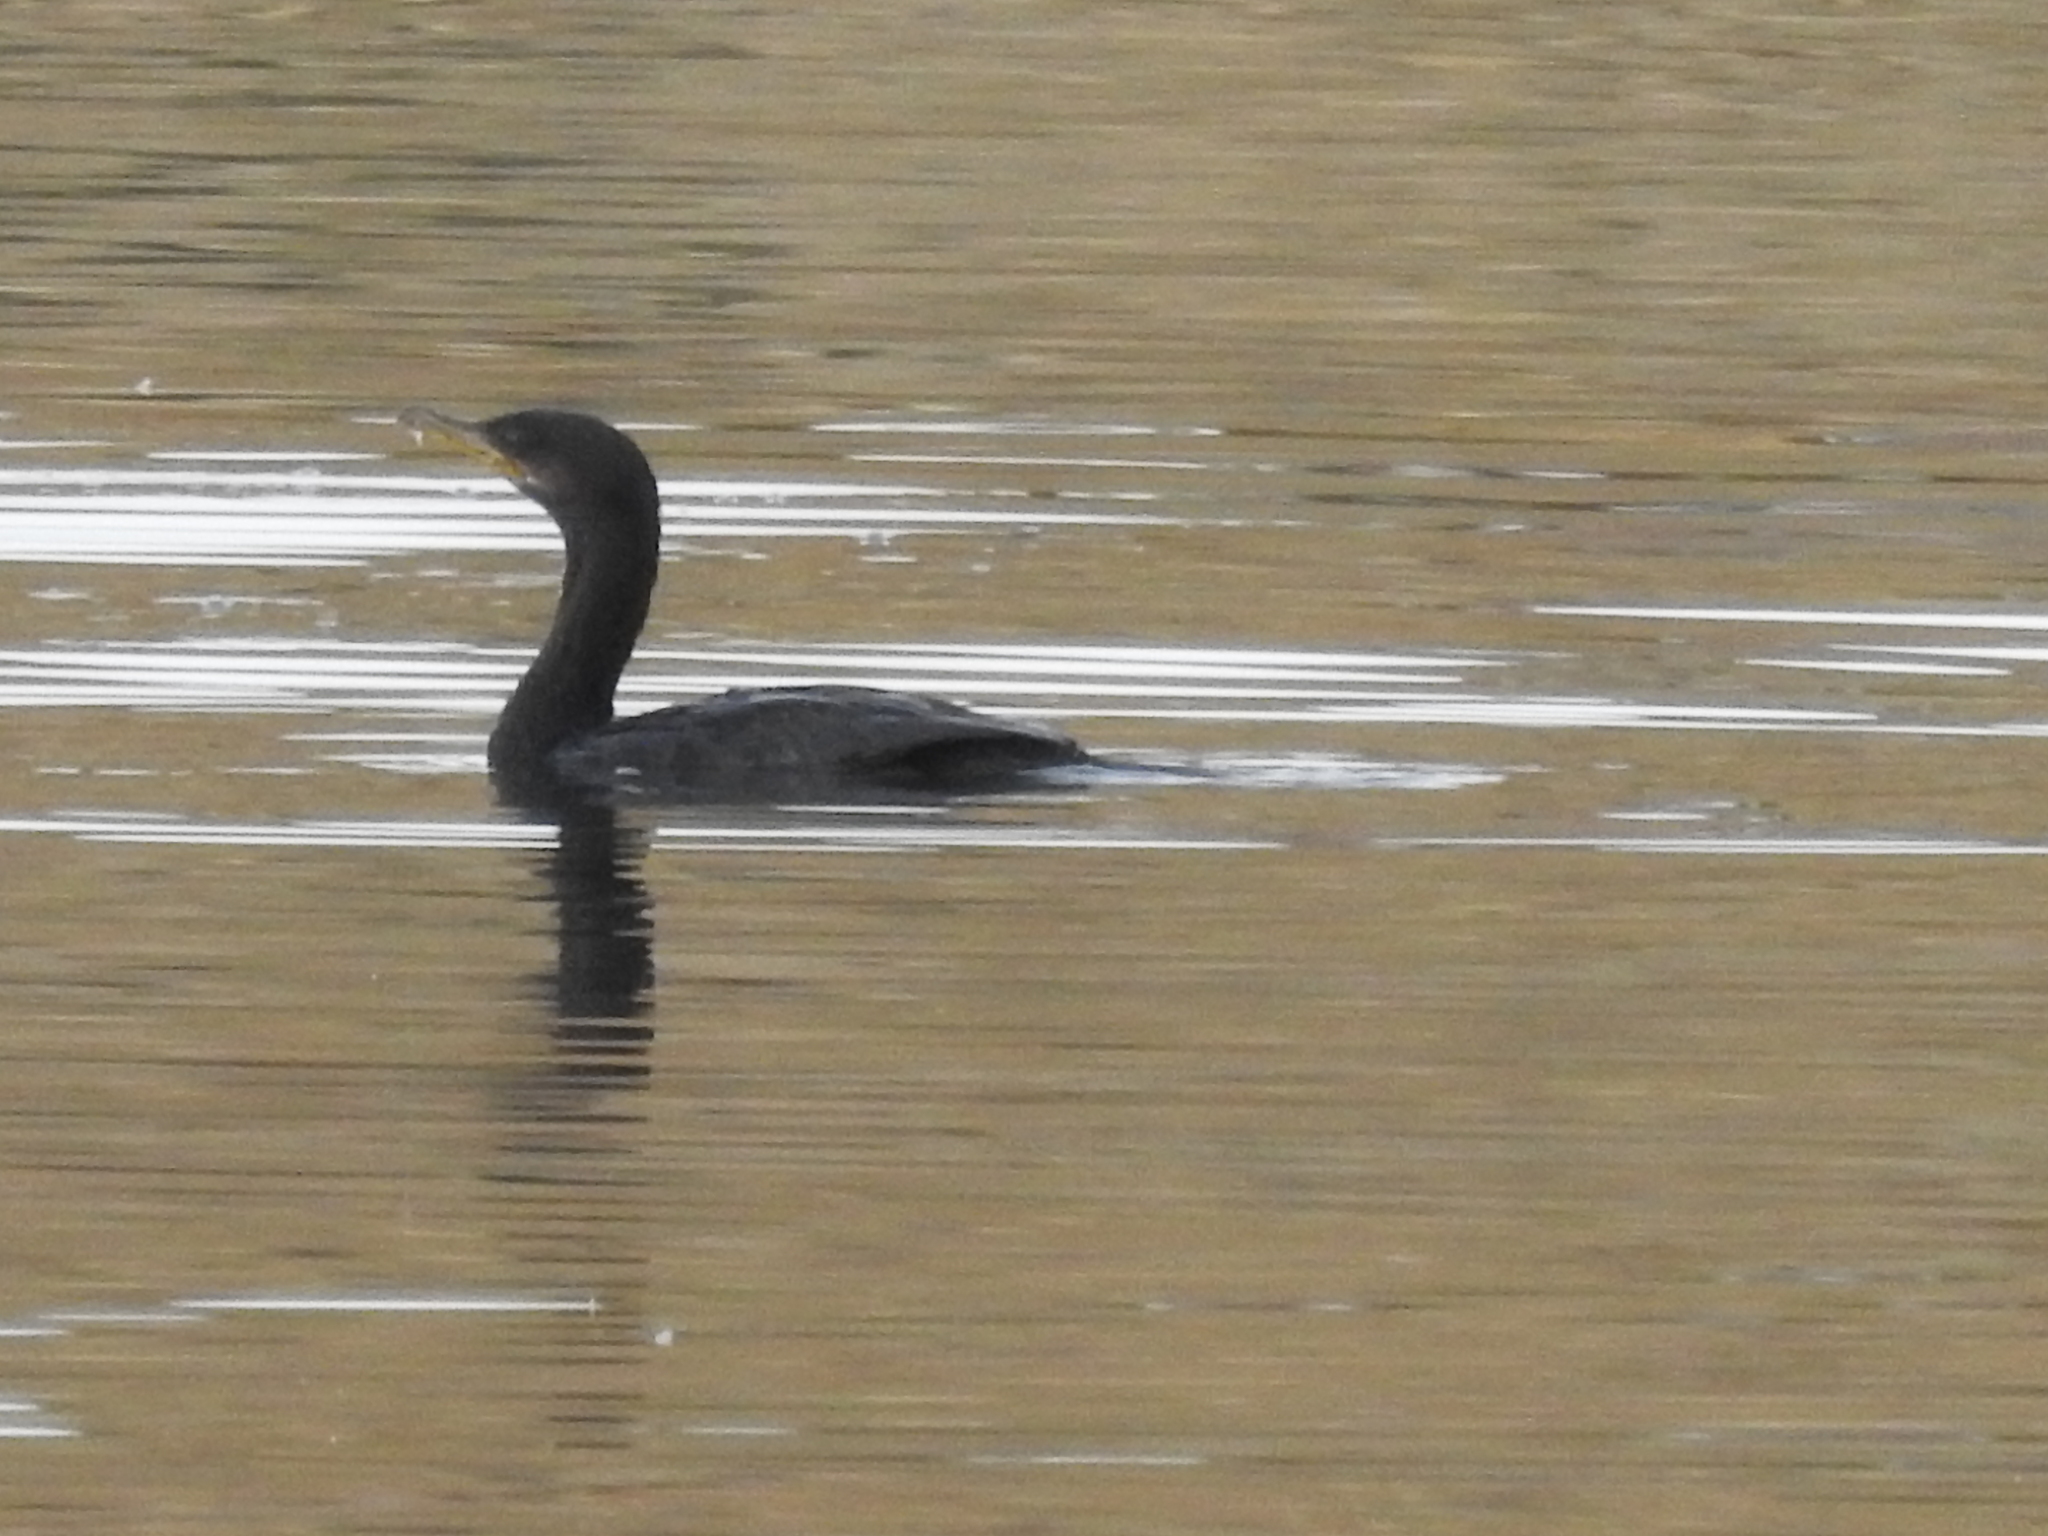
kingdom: Animalia
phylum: Chordata
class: Aves
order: Suliformes
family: Phalacrocoracidae
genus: Phalacrocorax
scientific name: Phalacrocorax brasilianus
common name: Neotropic cormorant
